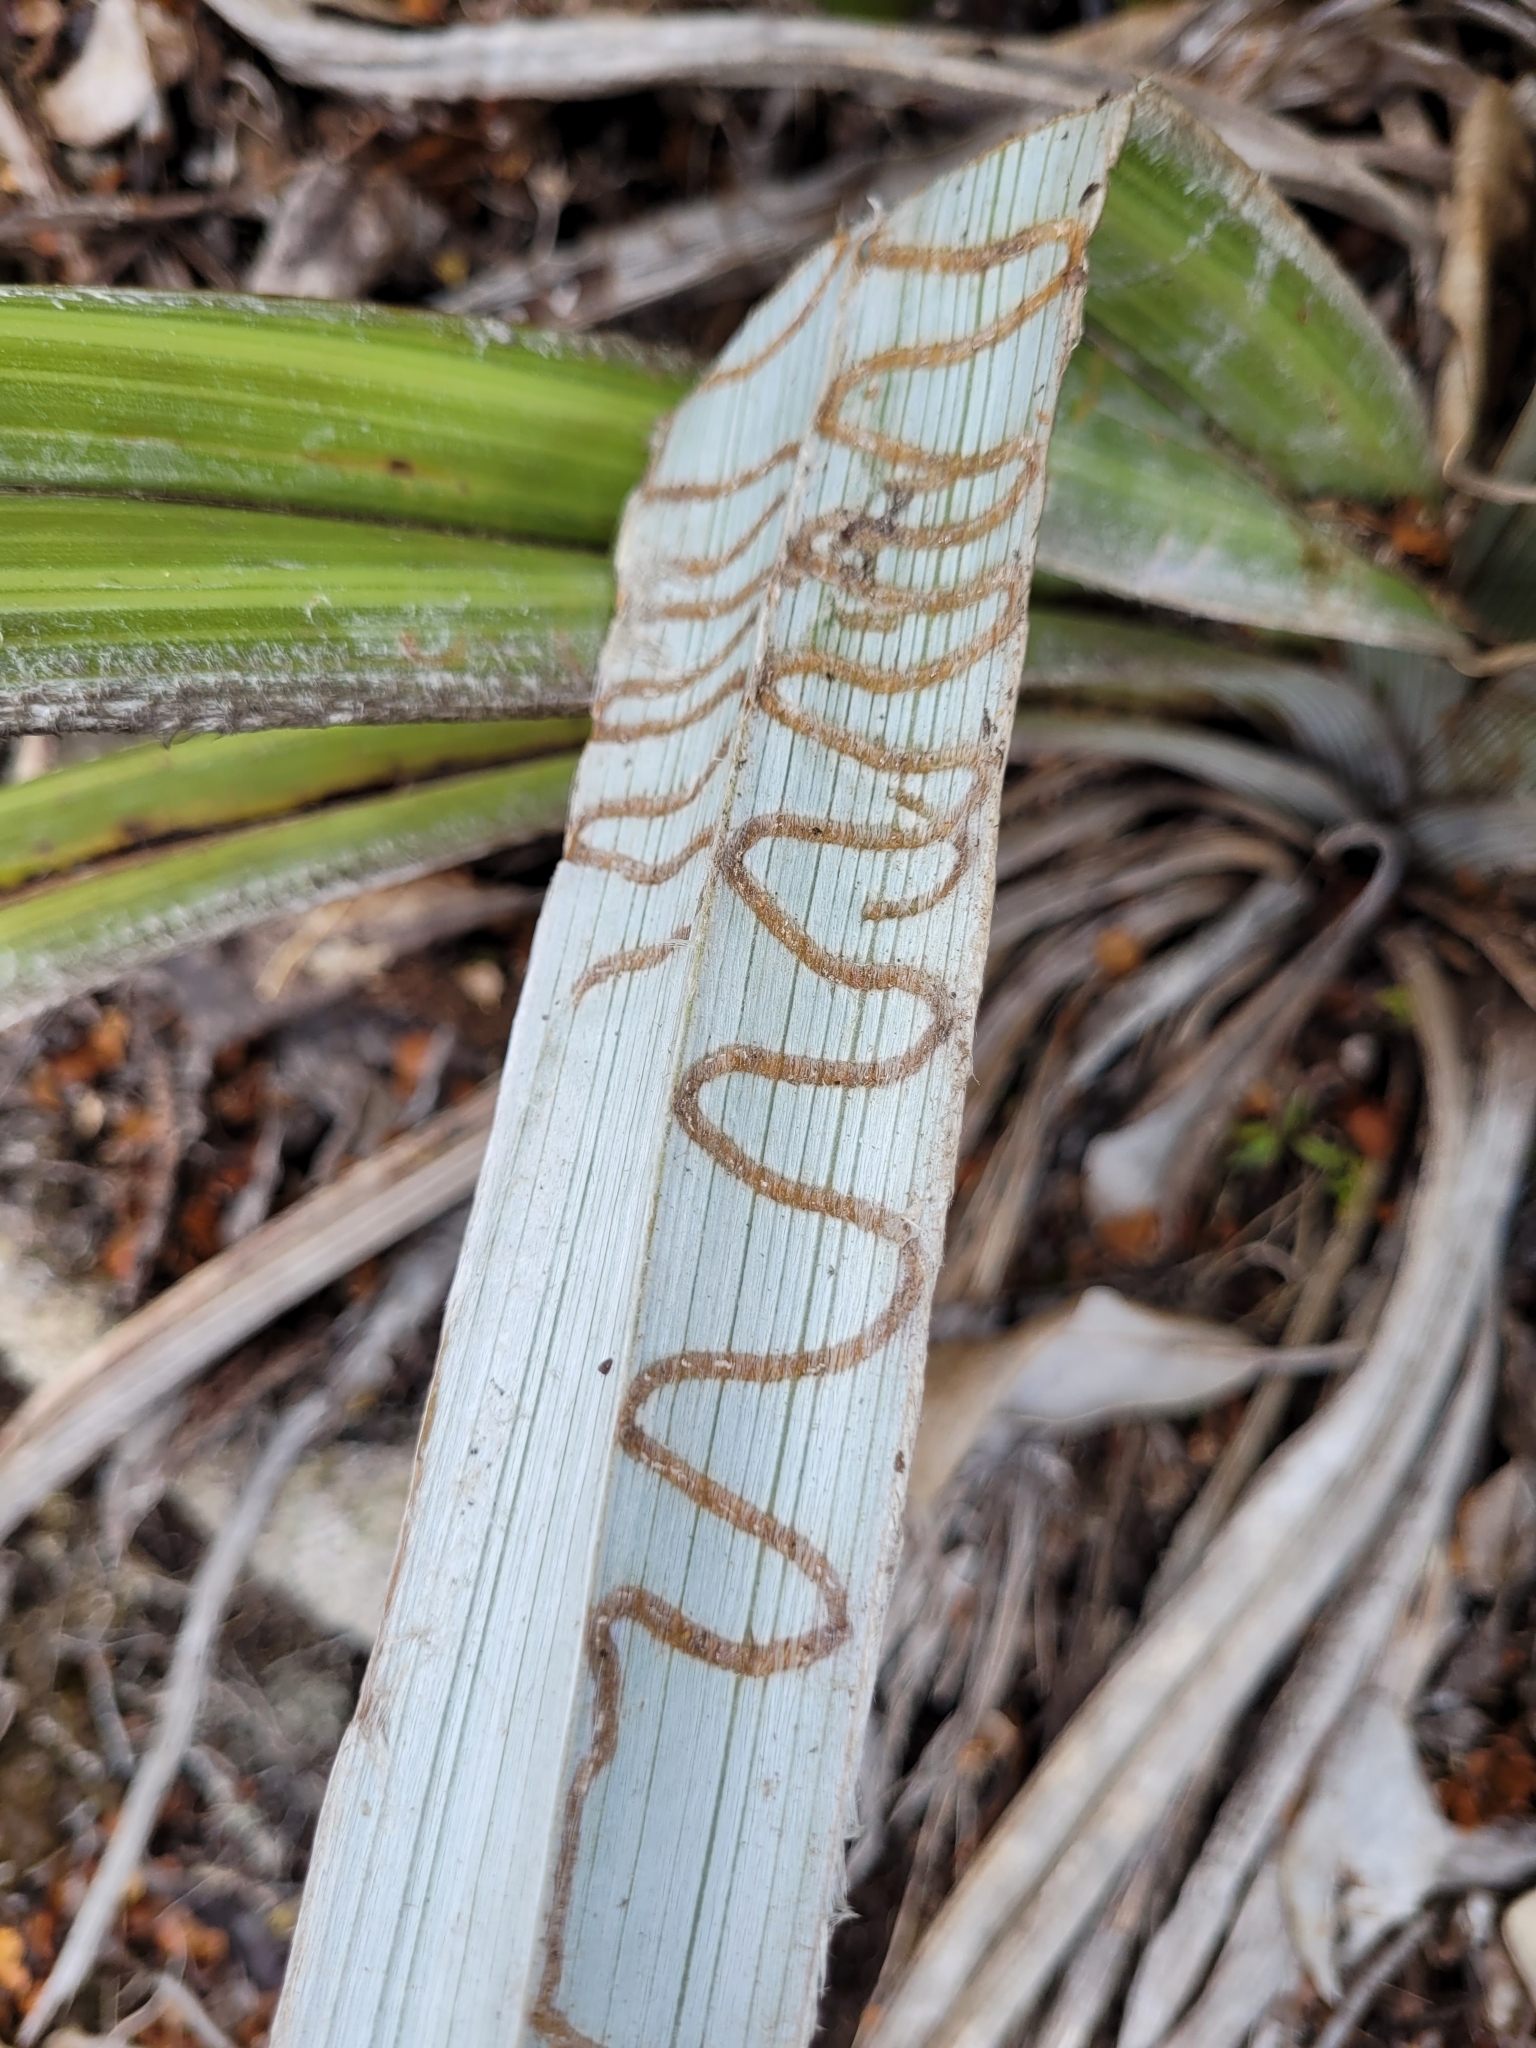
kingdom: Plantae
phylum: Tracheophyta
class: Liliopsida
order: Asparagales
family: Asteliaceae
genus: Astelia
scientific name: Astelia nervosa
